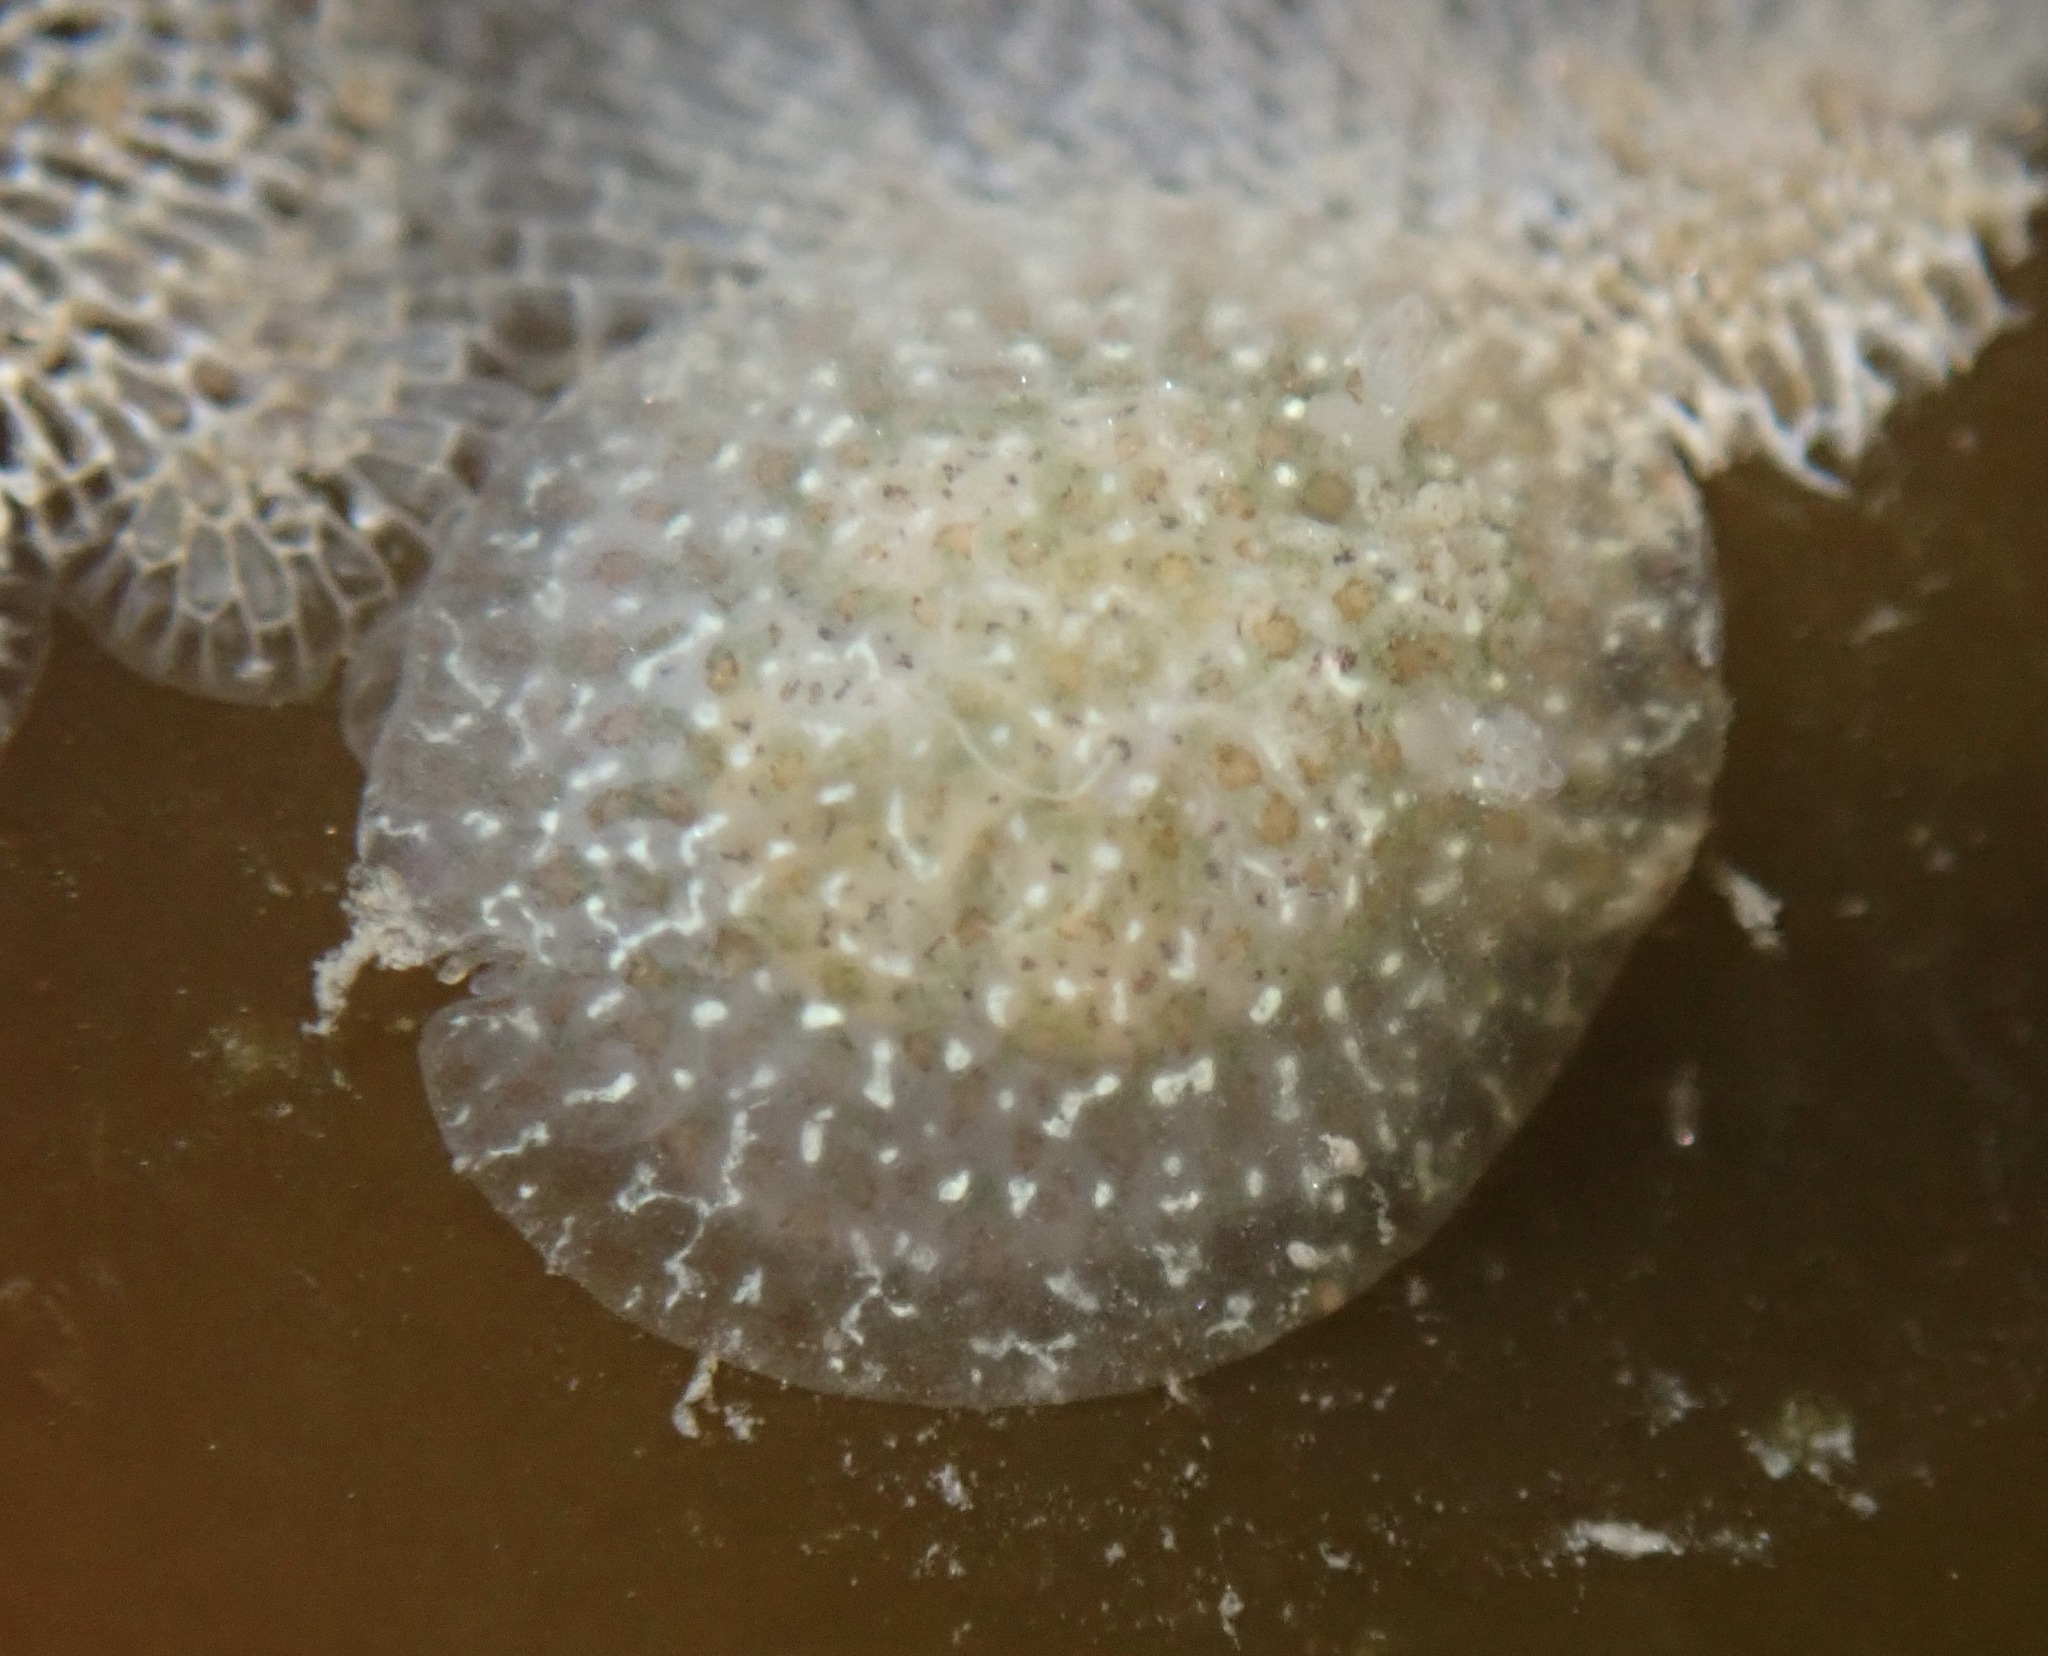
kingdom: Animalia
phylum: Mollusca
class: Gastropoda
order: Nudibranchia
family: Corambidae
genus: Corambe
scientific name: Corambe pacifica
